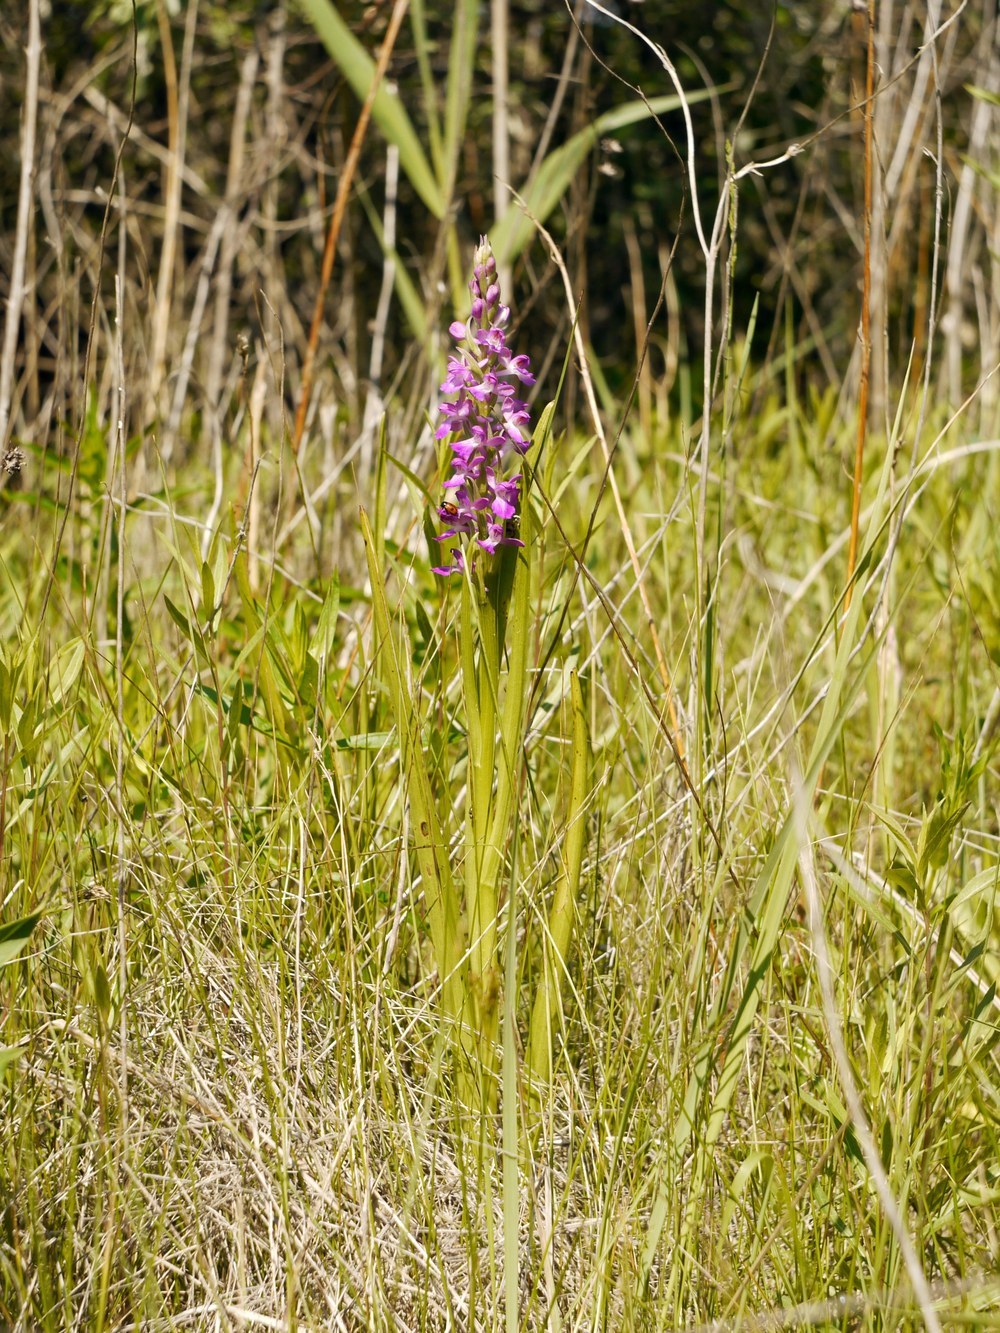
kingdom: Plantae
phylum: Tracheophyta
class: Liliopsida
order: Asparagales
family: Orchidaceae
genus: Anacamptis
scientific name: Anacamptis palustris
